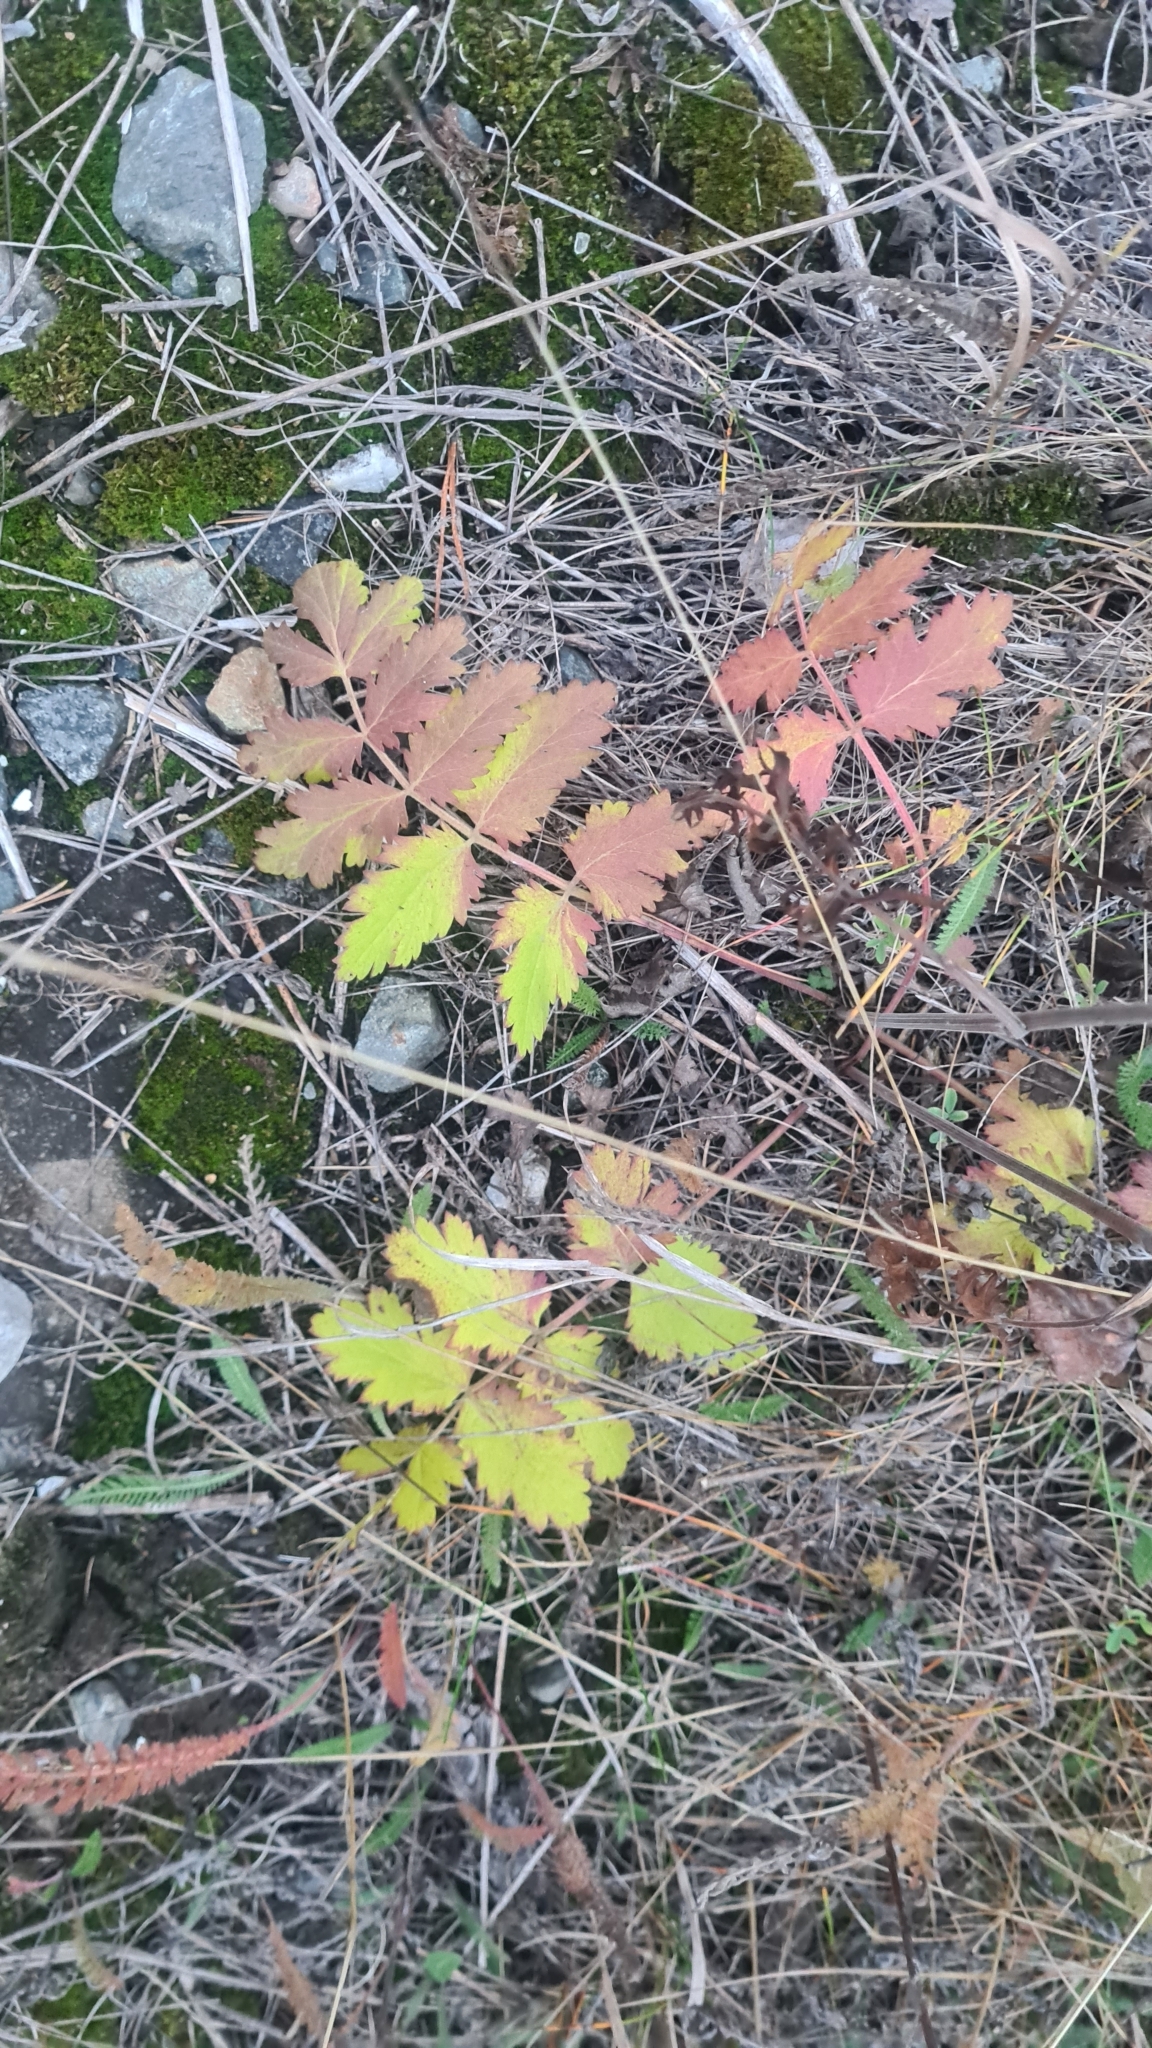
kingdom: Plantae
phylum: Tracheophyta
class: Magnoliopsida
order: Apiales
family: Apiaceae
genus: Pimpinella
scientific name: Pimpinella saxifraga
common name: Burnet-saxifrage
